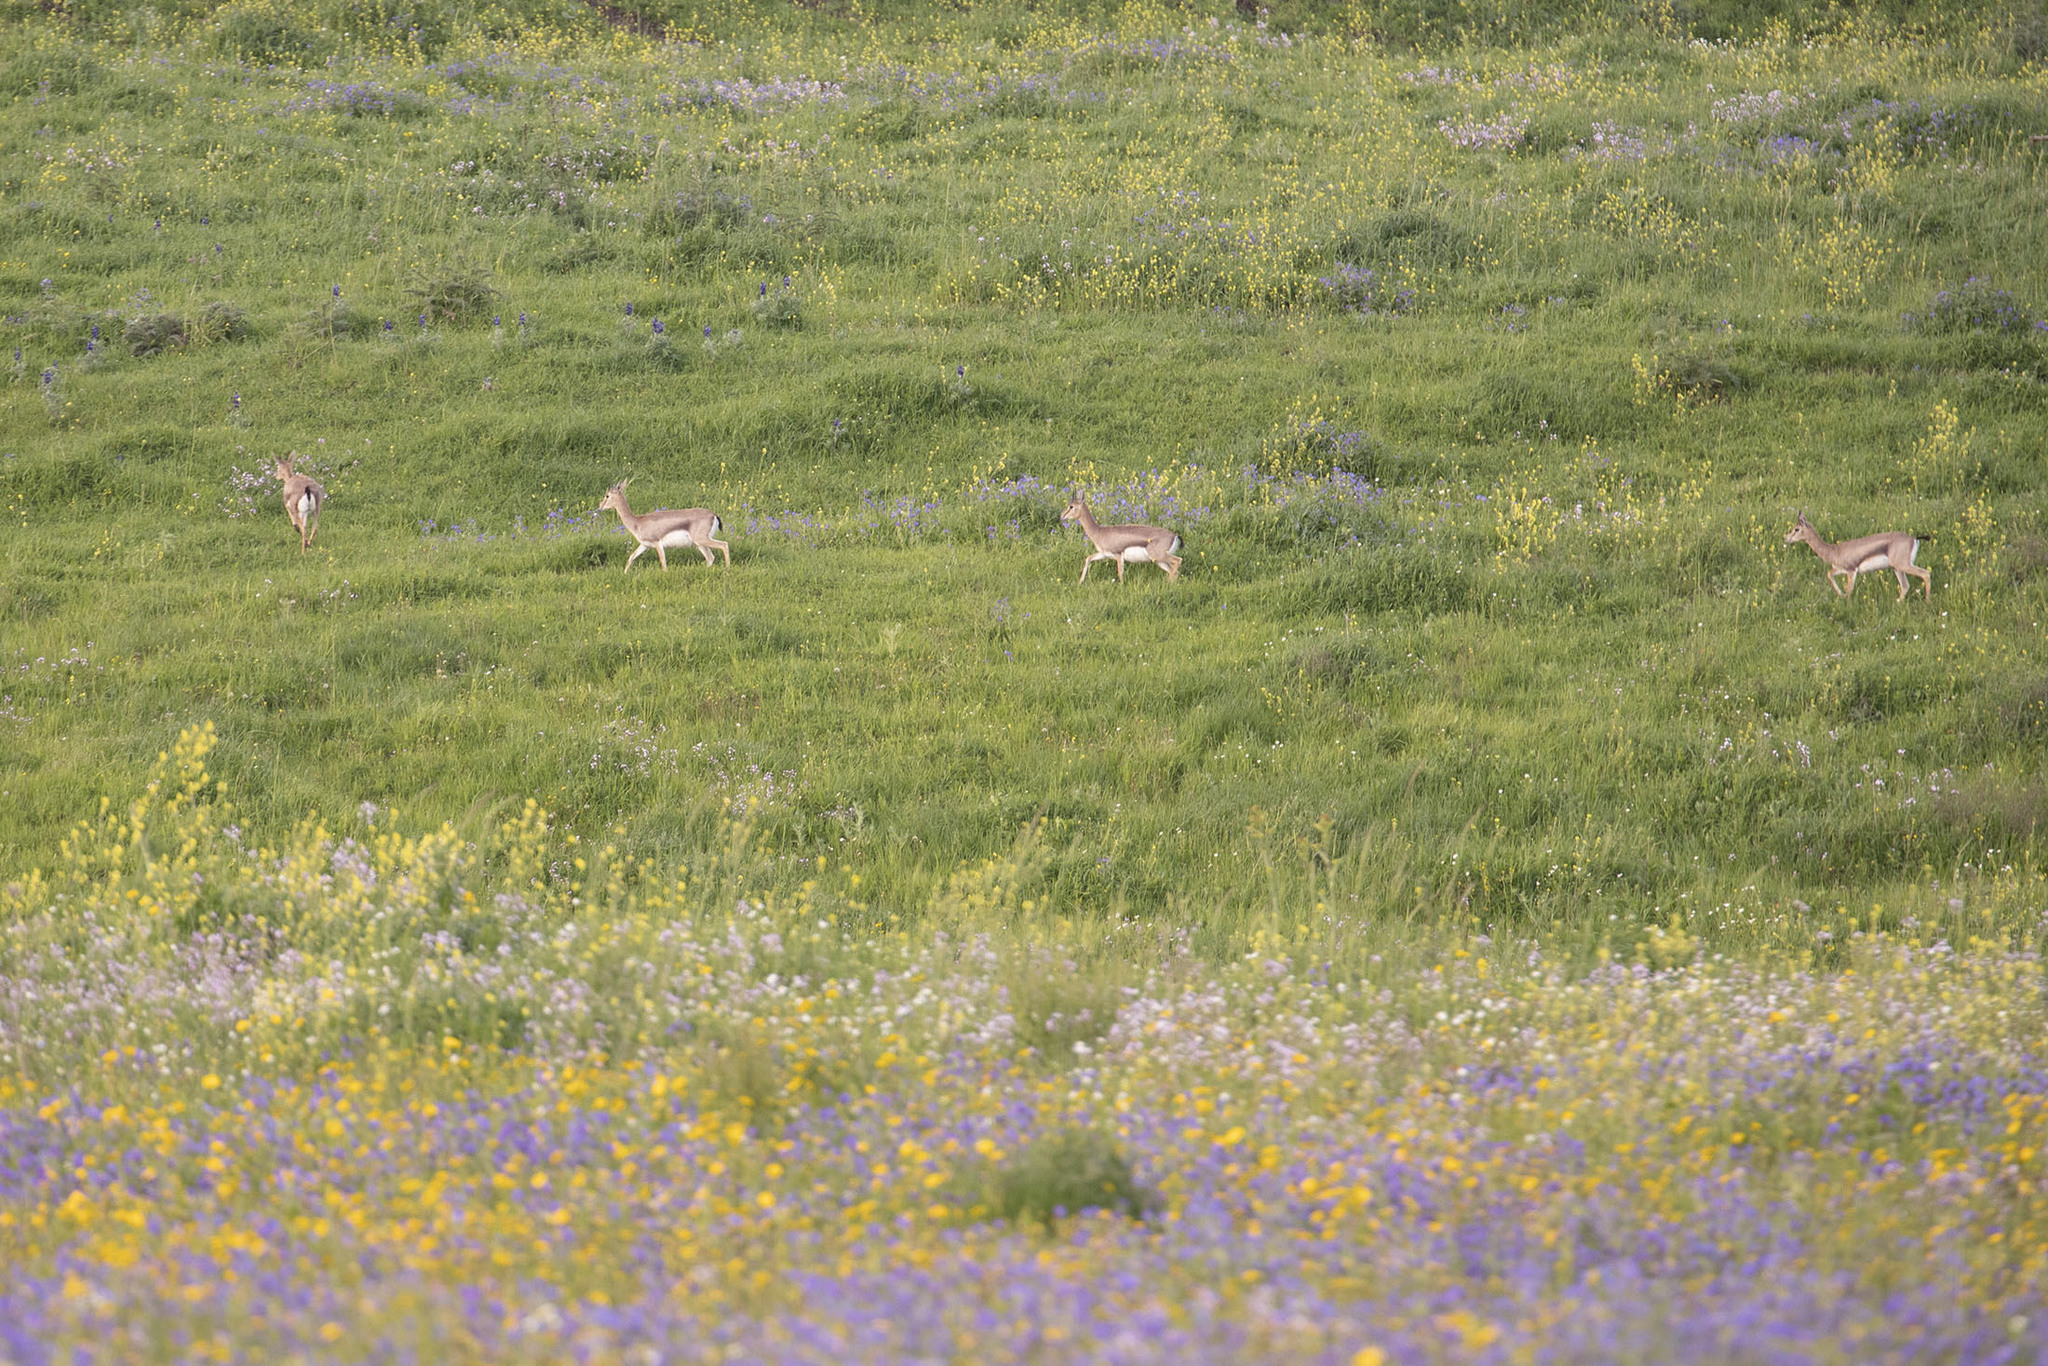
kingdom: Animalia
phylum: Chordata
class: Mammalia
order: Artiodactyla
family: Bovidae
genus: Gazella
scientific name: Gazella gazella
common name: Mountain gazelle
